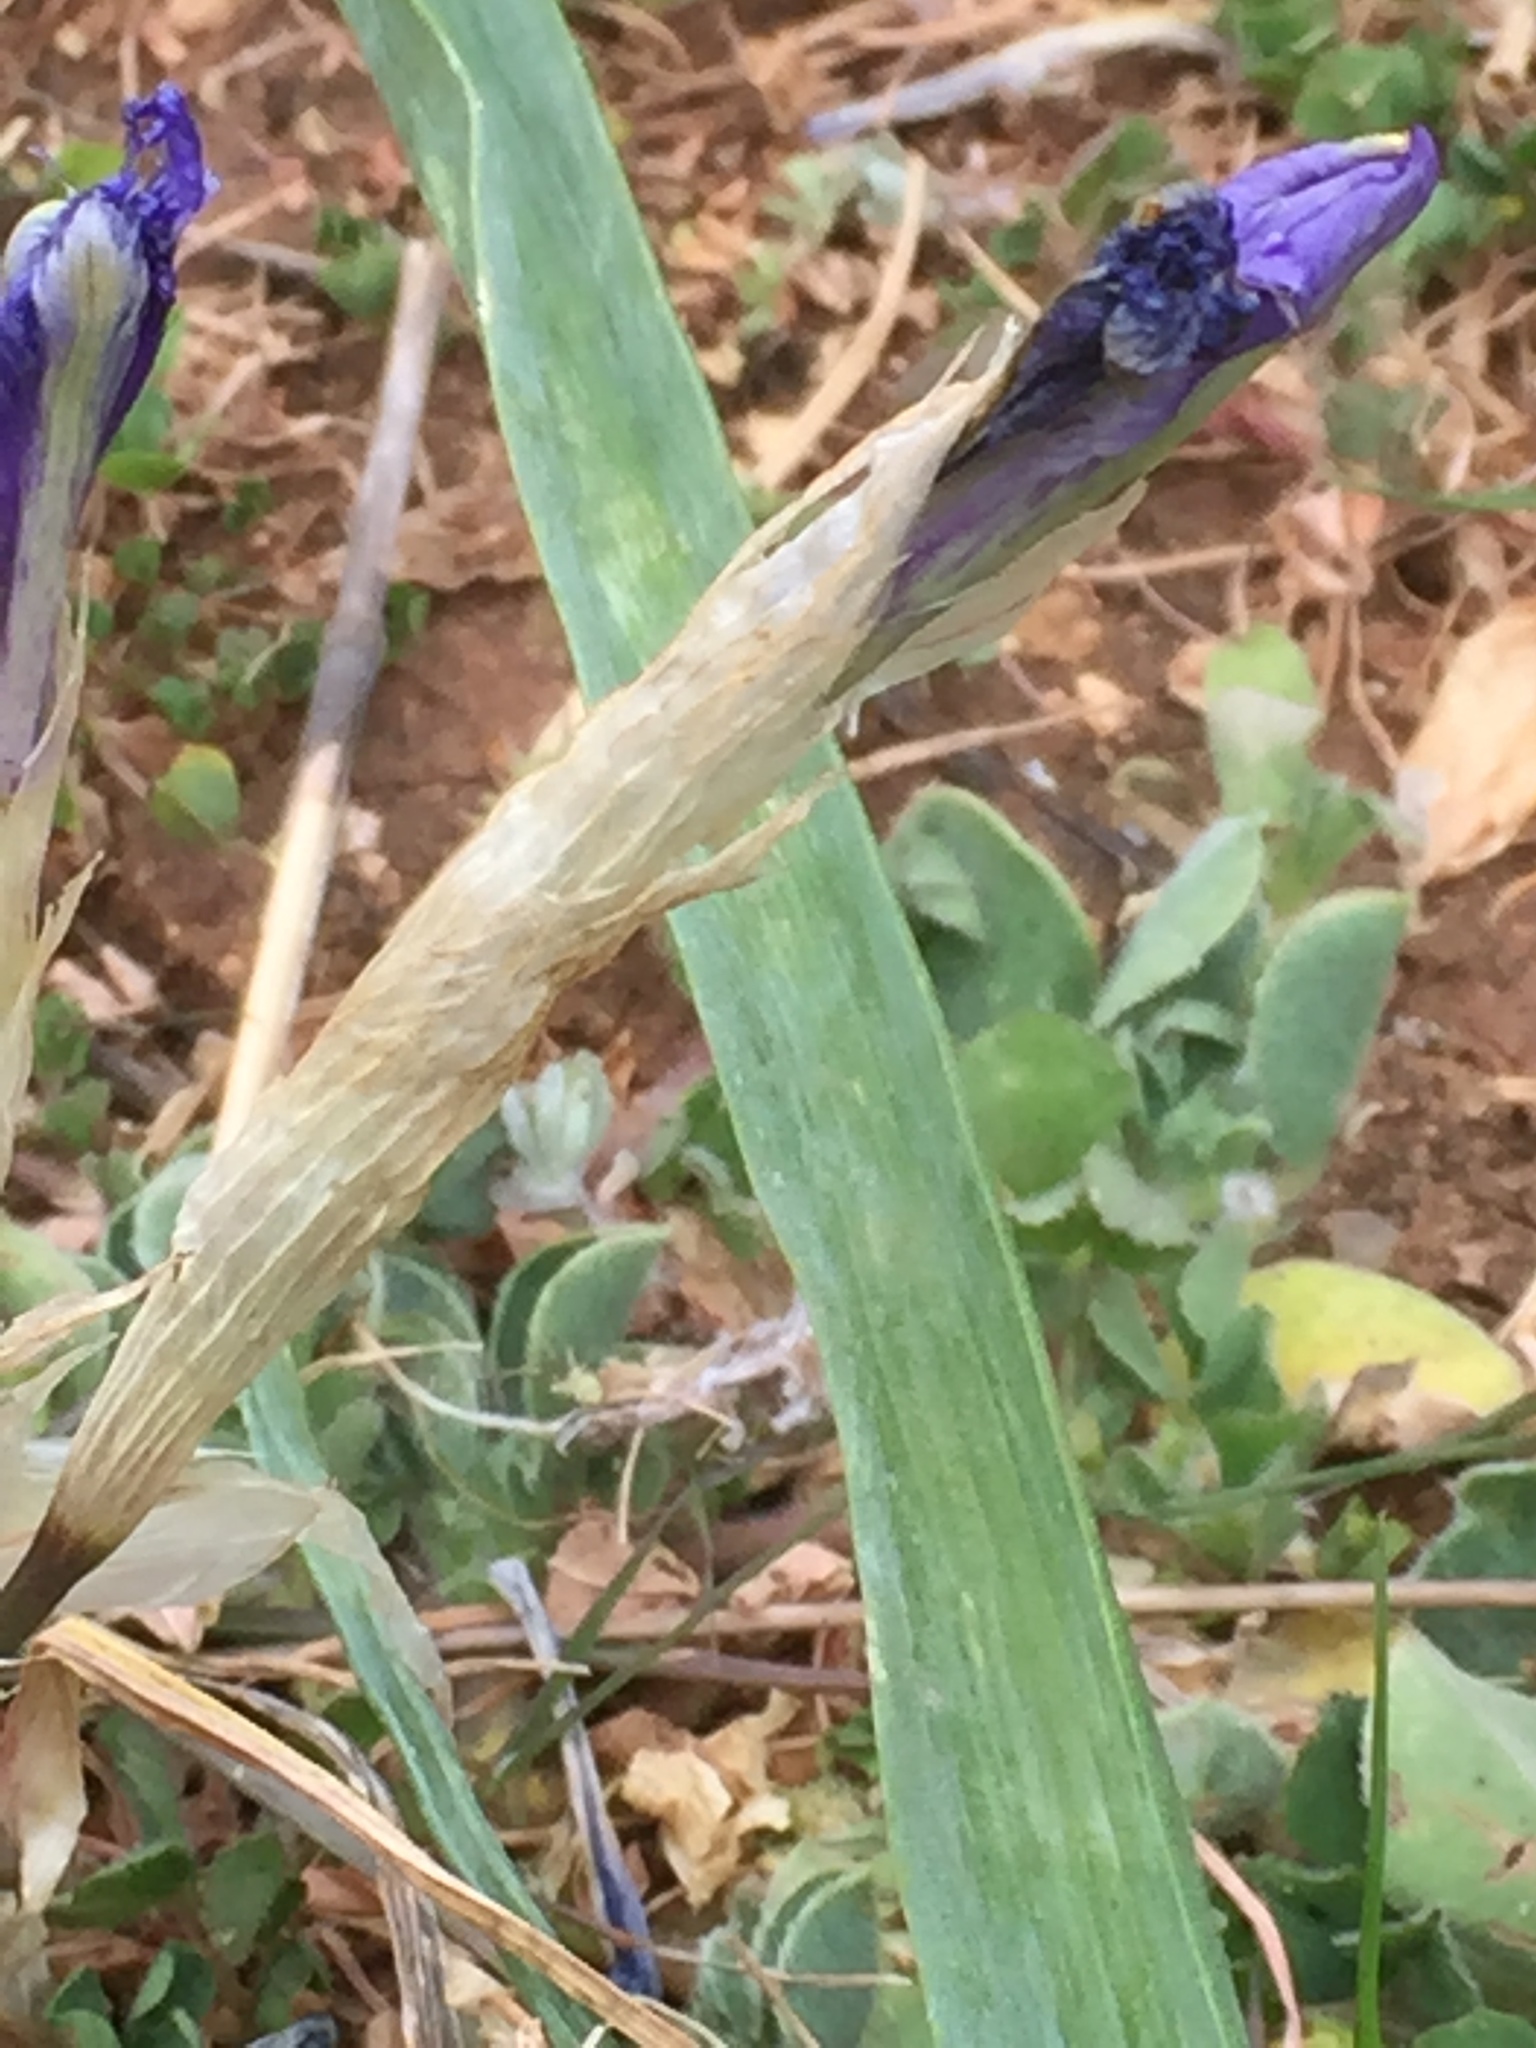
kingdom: Plantae
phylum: Tracheophyta
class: Liliopsida
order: Asparagales
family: Iridaceae
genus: Moraea
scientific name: Moraea sisyrinchium
